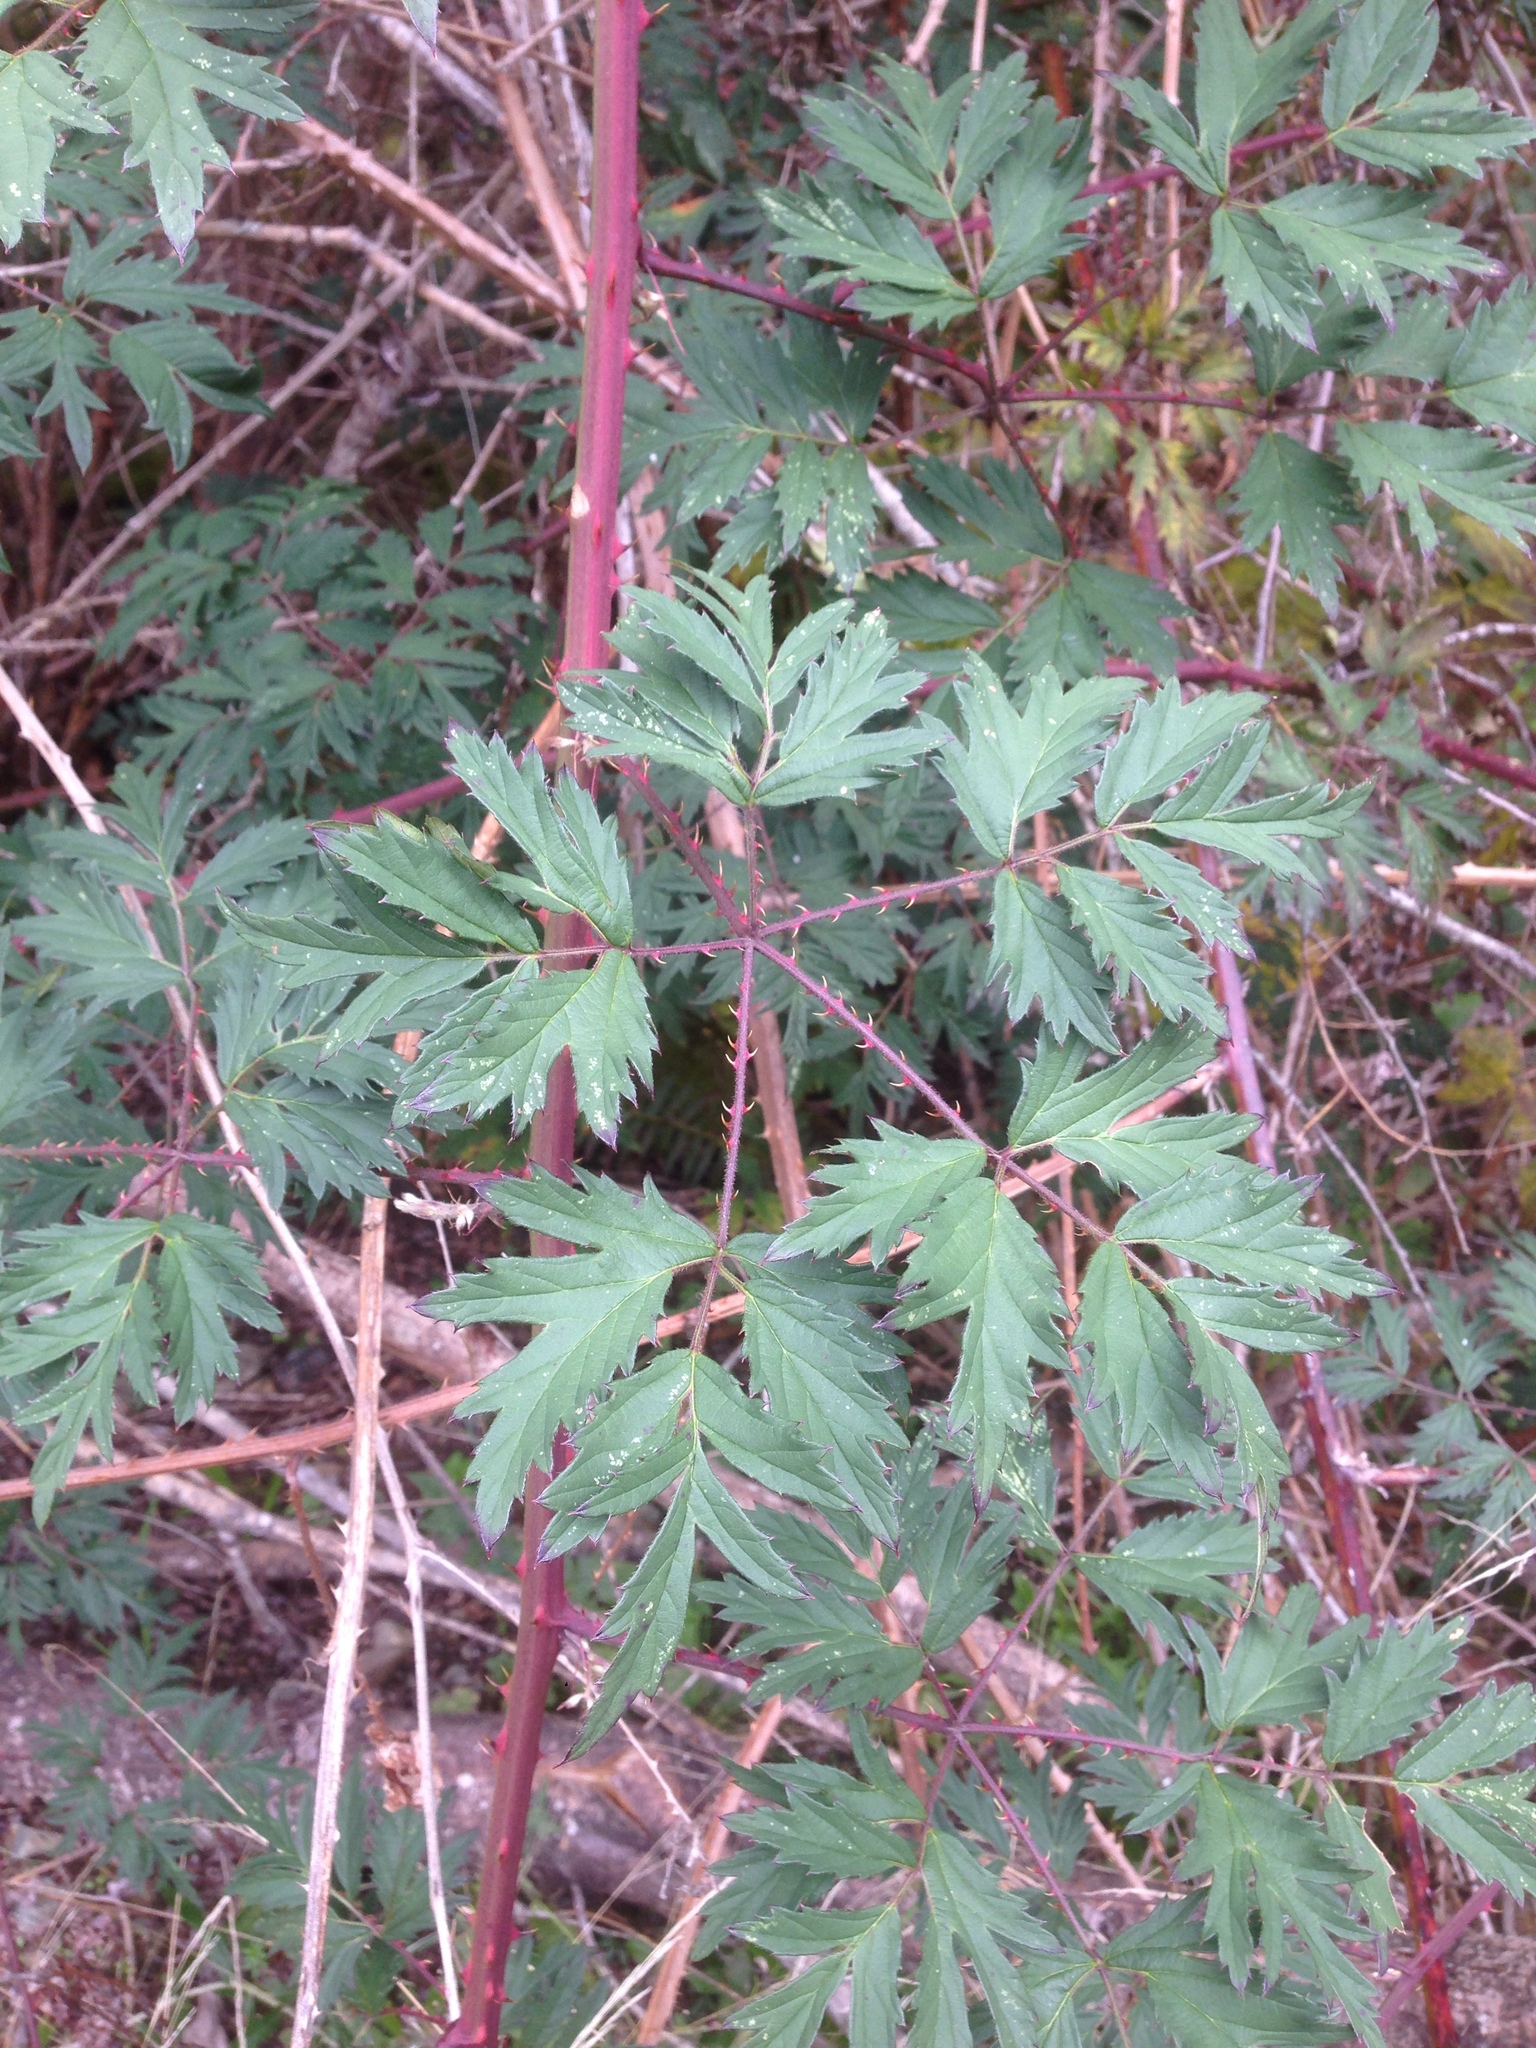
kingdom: Plantae
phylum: Tracheophyta
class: Magnoliopsida
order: Rosales
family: Rosaceae
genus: Rubus
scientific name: Rubus laciniatus
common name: Evergreen blackberry
